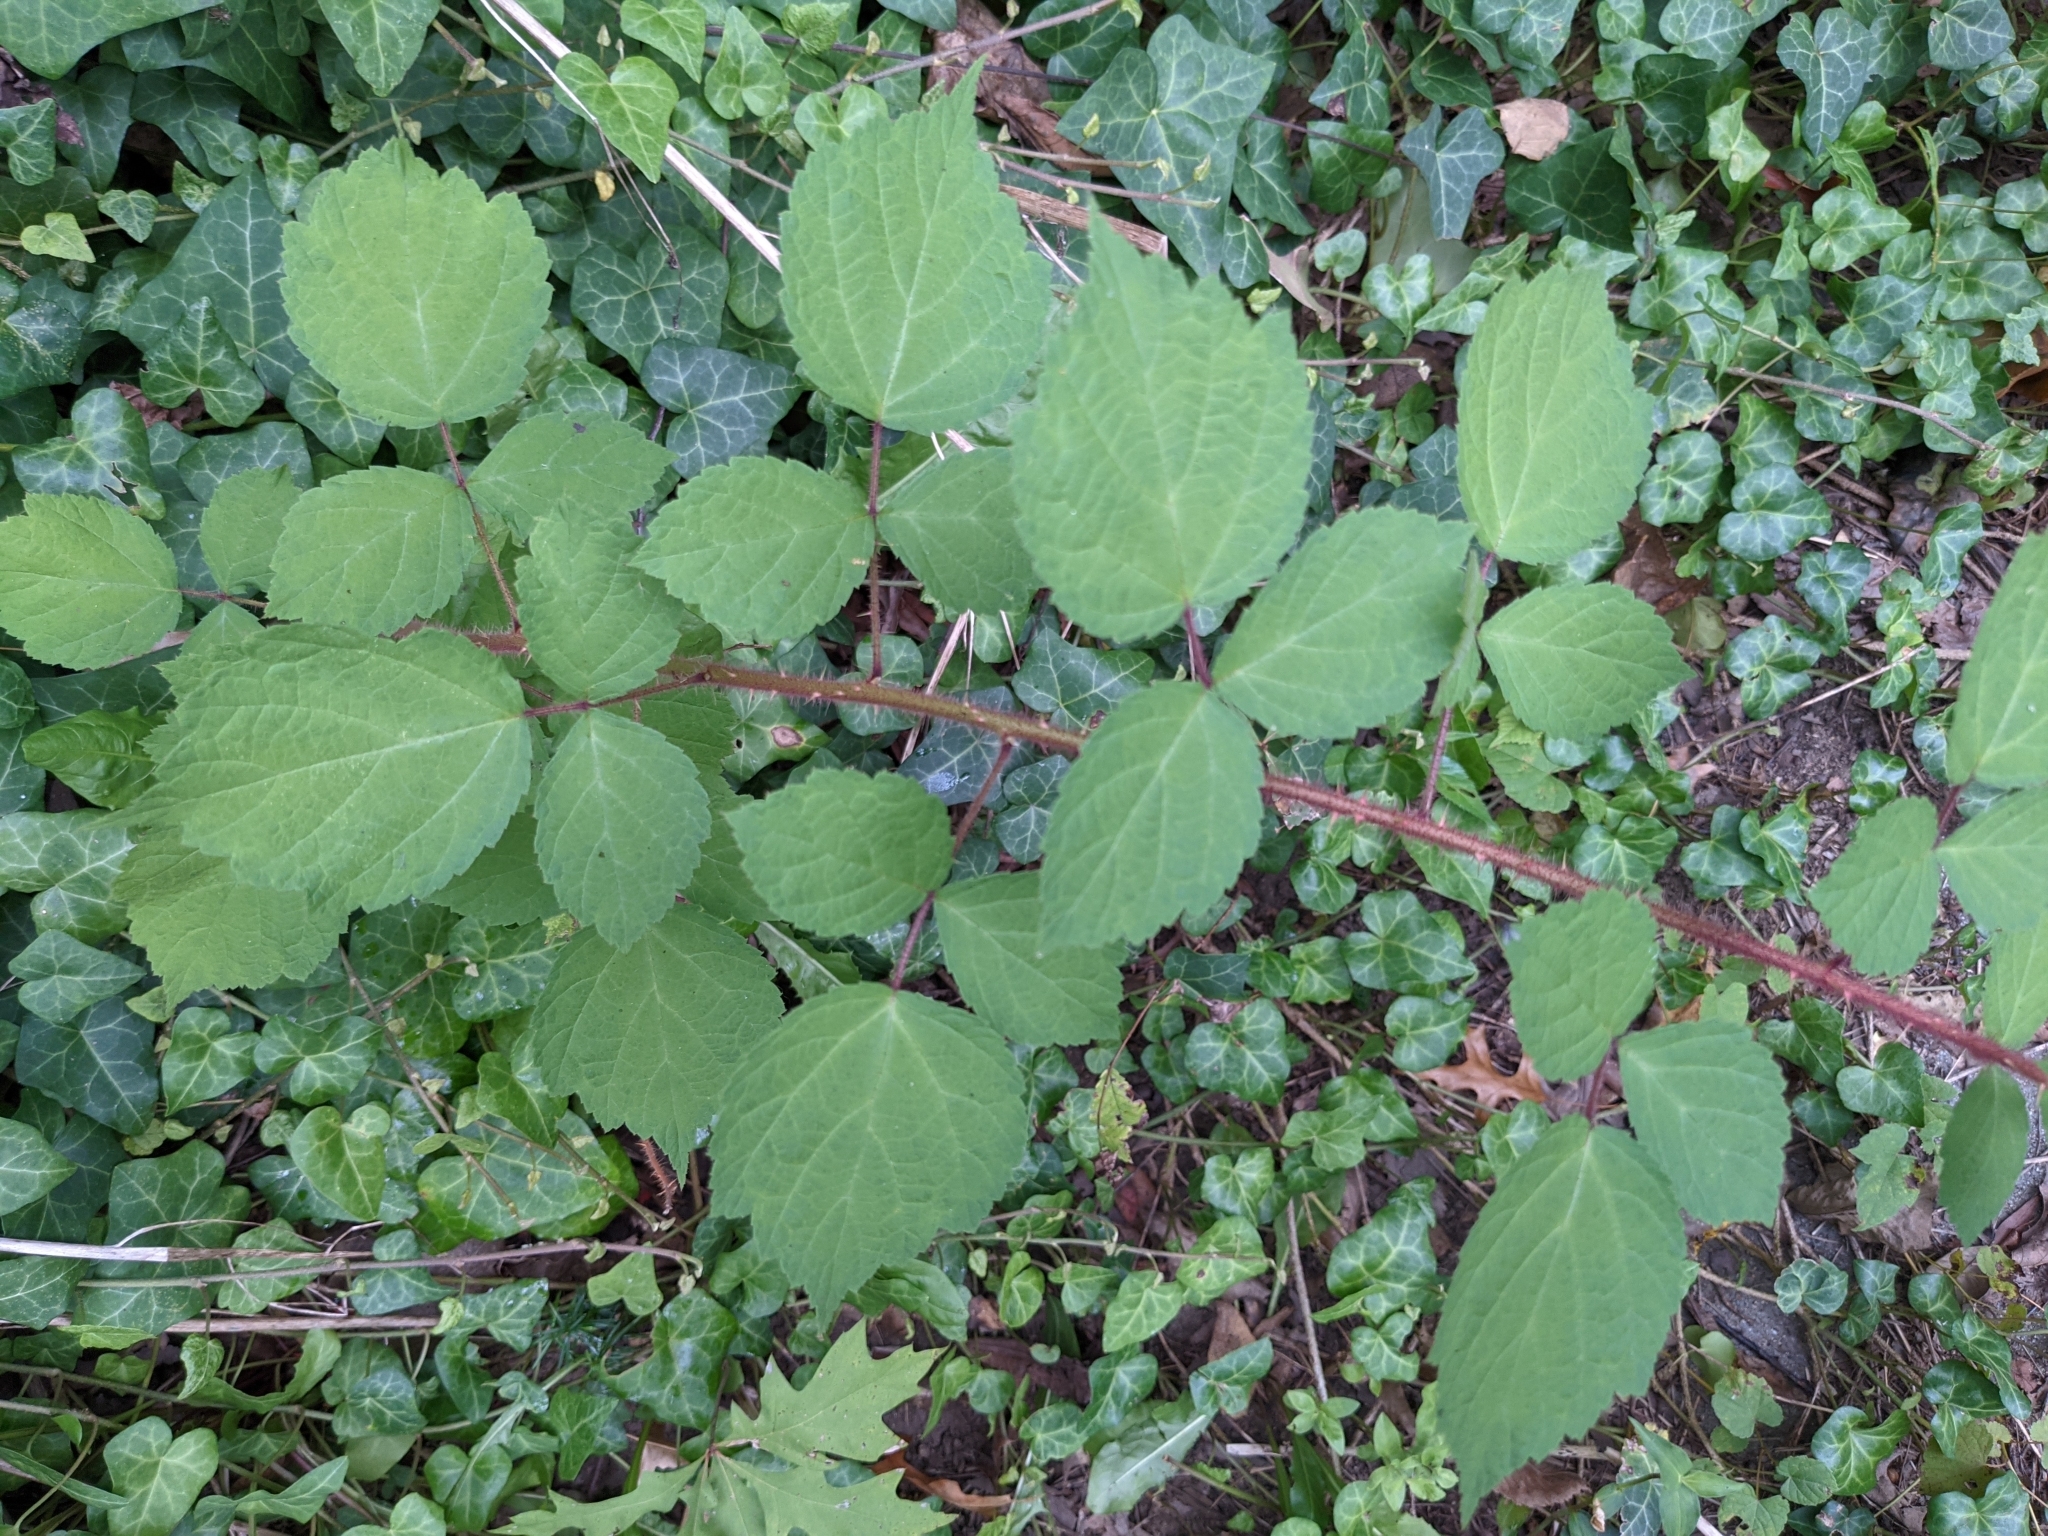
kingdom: Plantae
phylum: Tracheophyta
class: Magnoliopsida
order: Rosales
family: Rosaceae
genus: Rubus
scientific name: Rubus phoenicolasius
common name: Japanese wineberry
